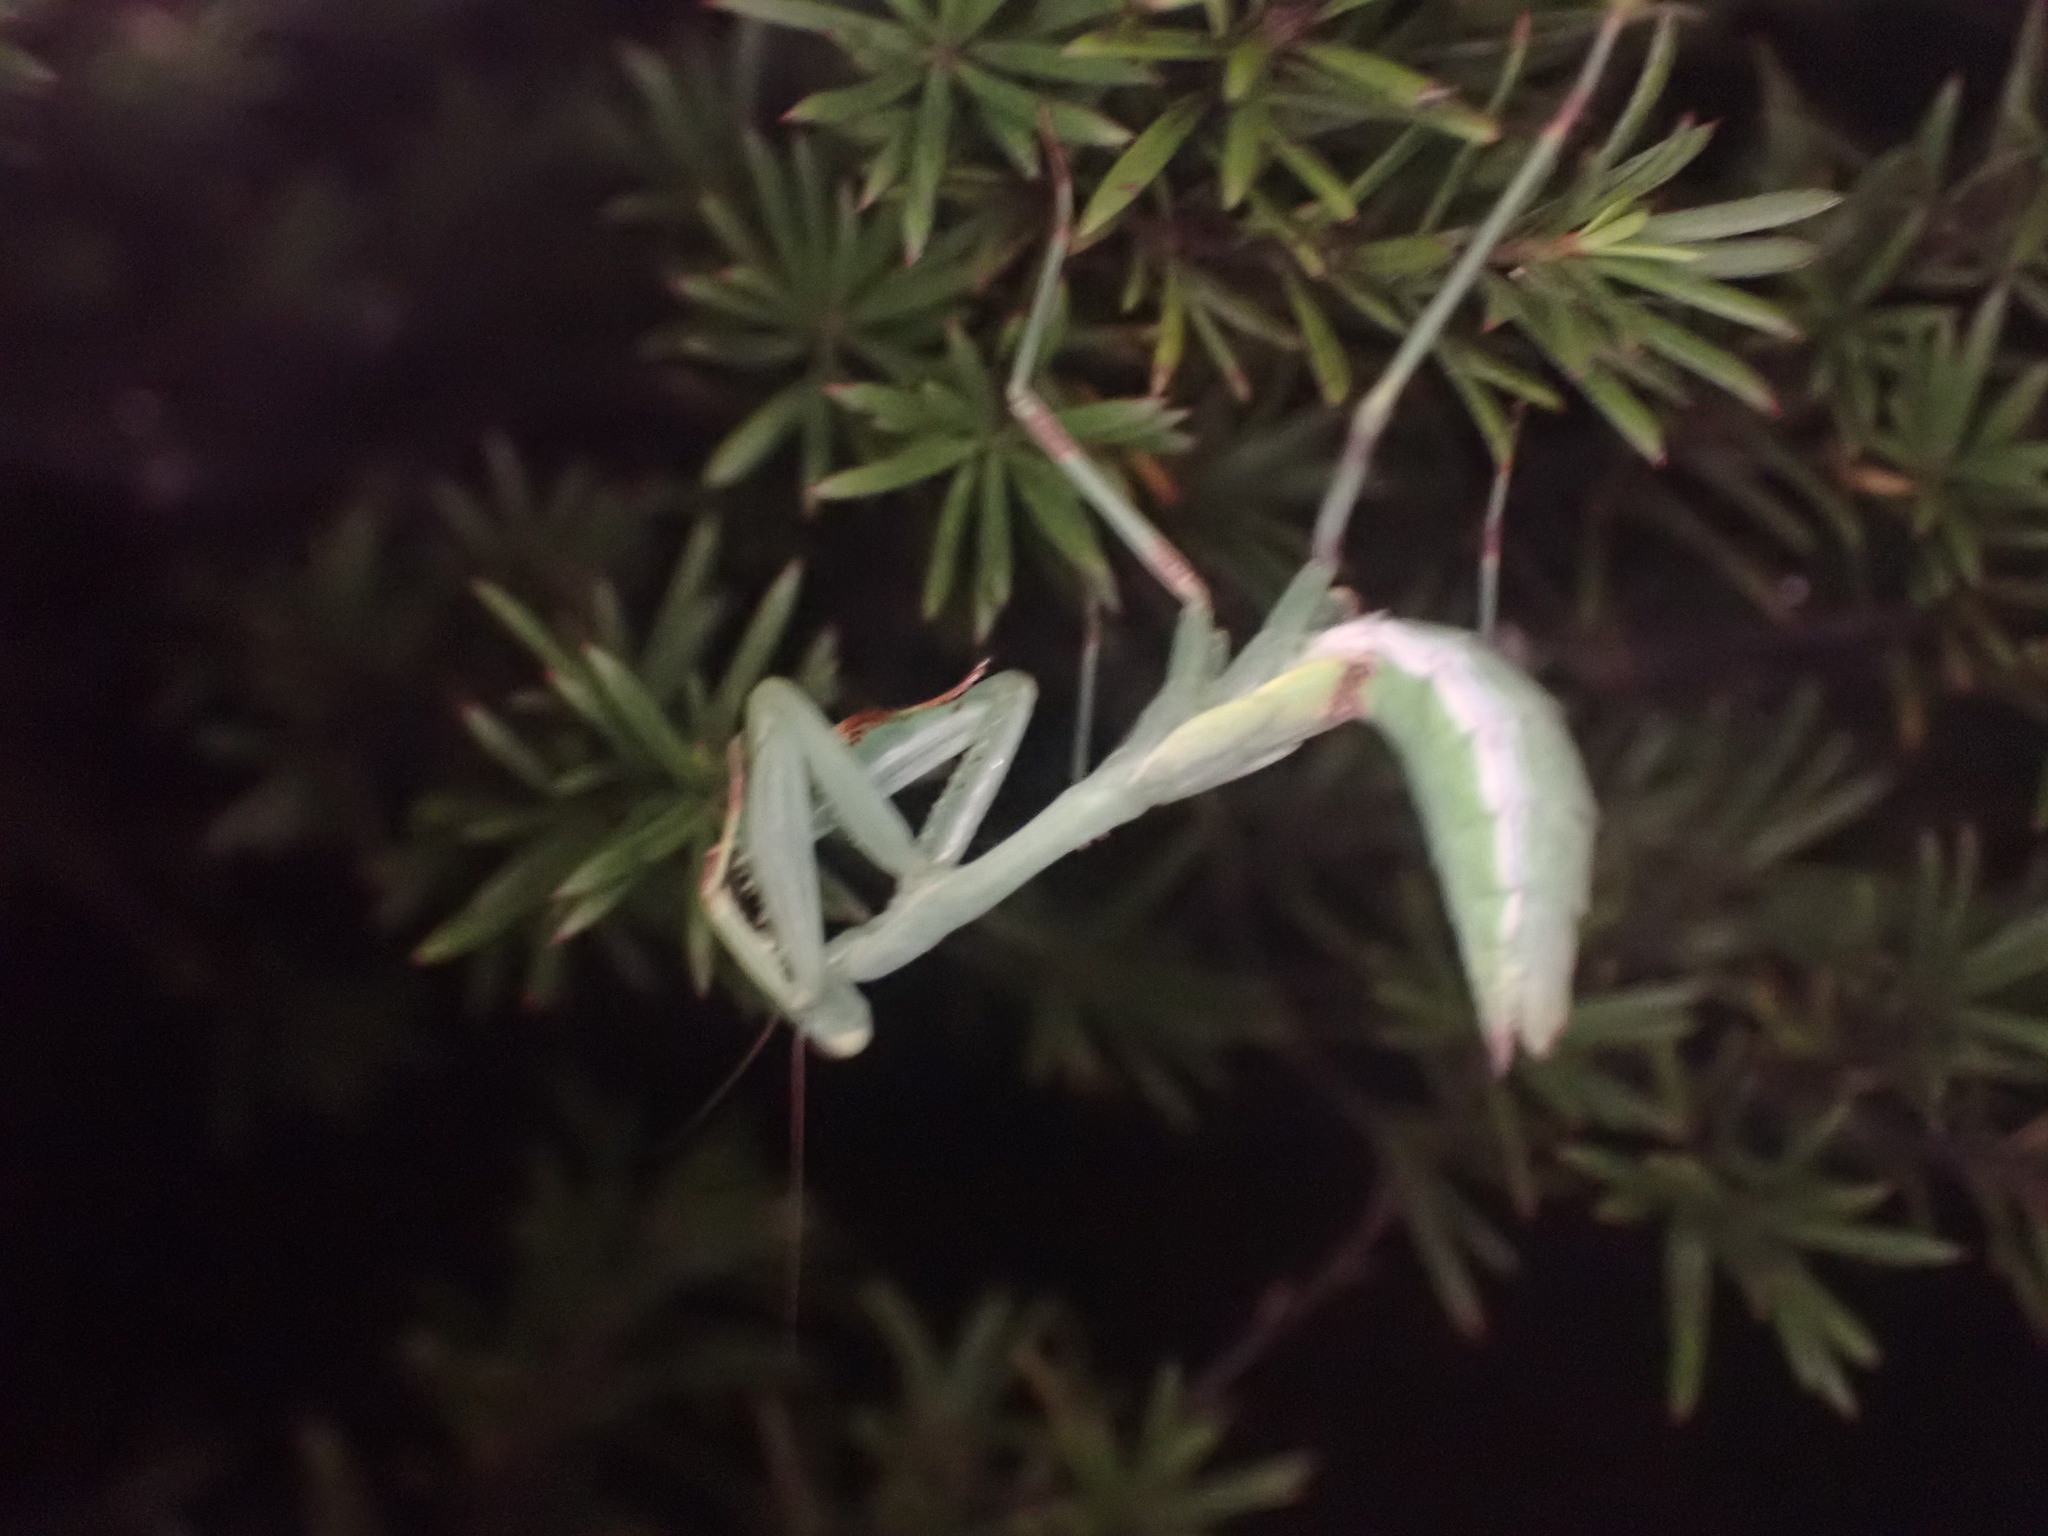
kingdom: Animalia
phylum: Arthropoda
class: Insecta
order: Mantodea
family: Miomantidae
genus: Miomantis
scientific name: Miomantis caffra
